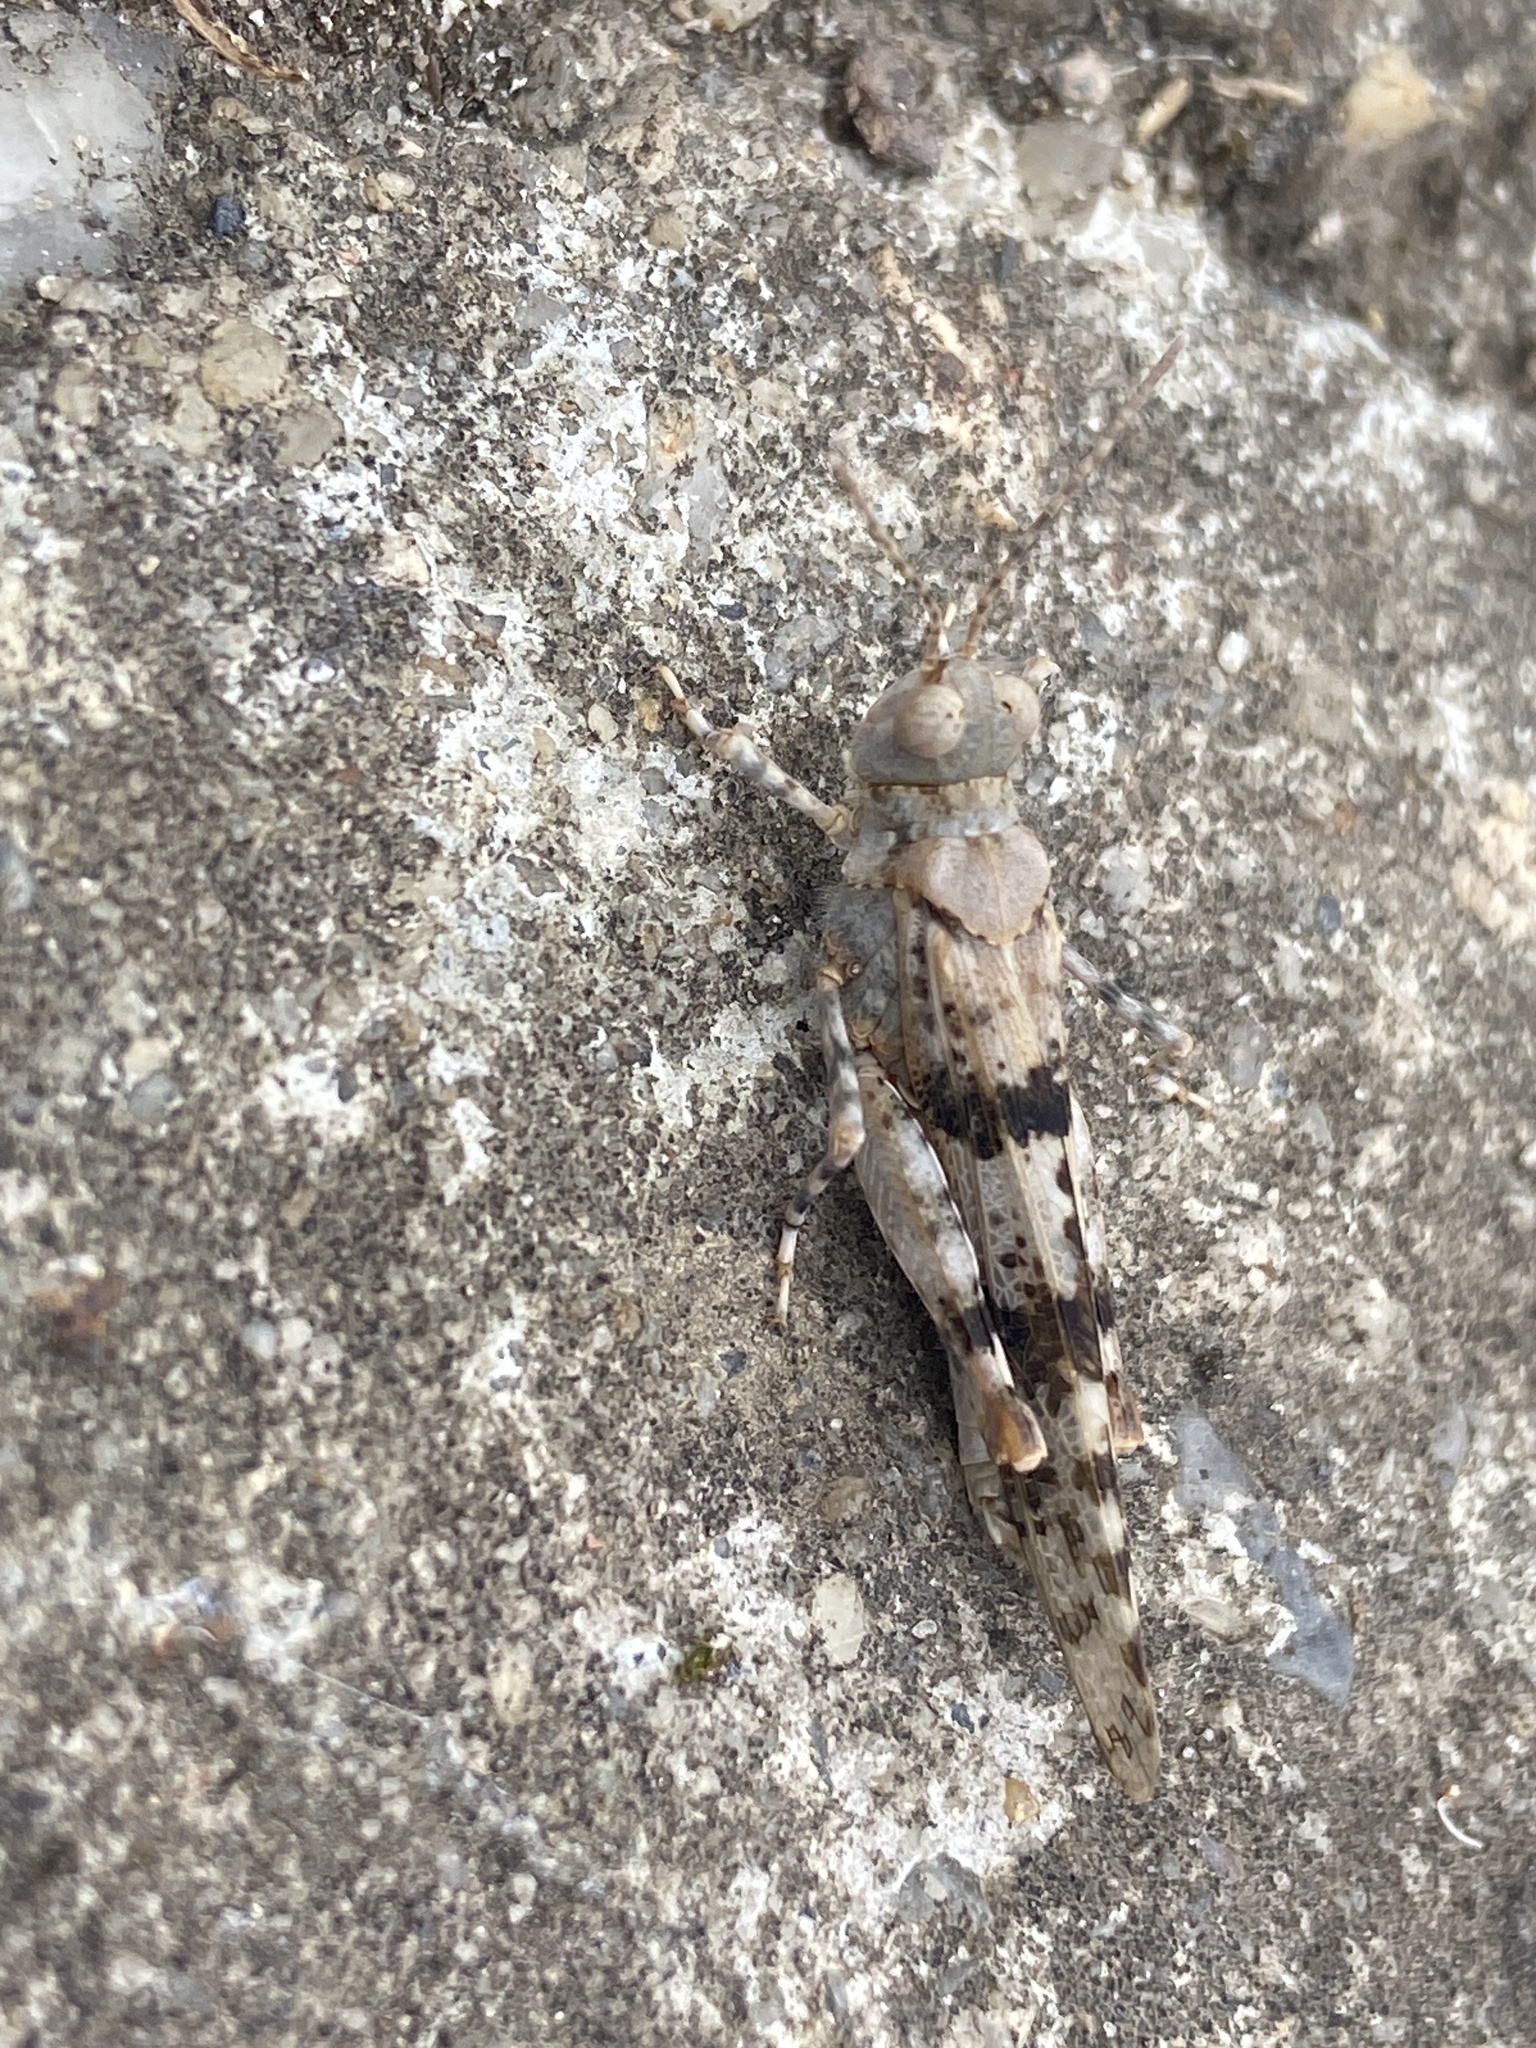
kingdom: Animalia
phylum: Arthropoda
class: Insecta
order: Orthoptera
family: Acrididae
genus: Sphingonotus
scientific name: Sphingonotus caerulans
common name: Blue-winged locust
